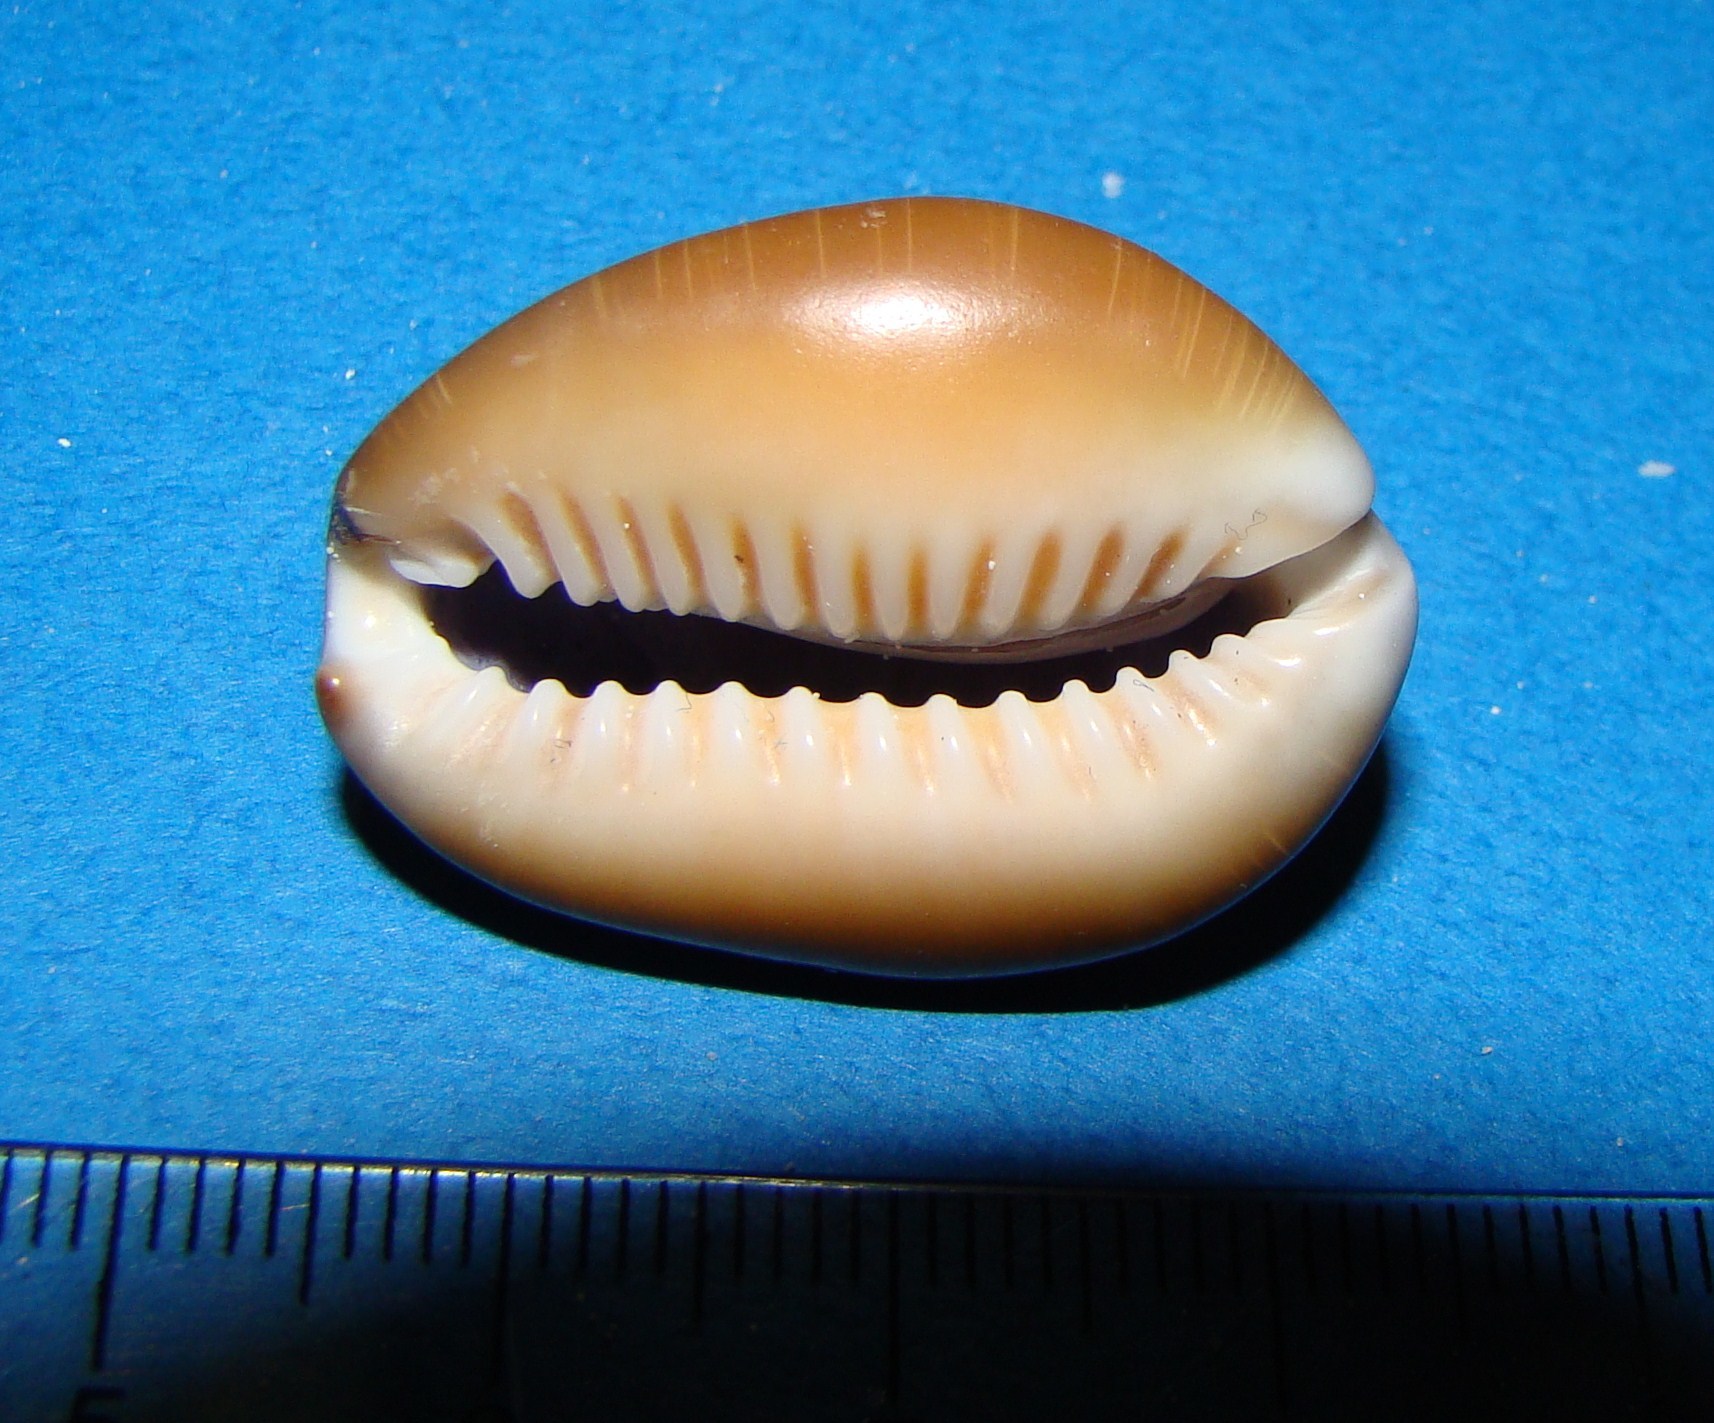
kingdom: Animalia
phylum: Mollusca
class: Gastropoda
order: Littorinimorpha
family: Cypraeidae
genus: Monetaria
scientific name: Monetaria caputserpentis
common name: Serpent's head cowrie
